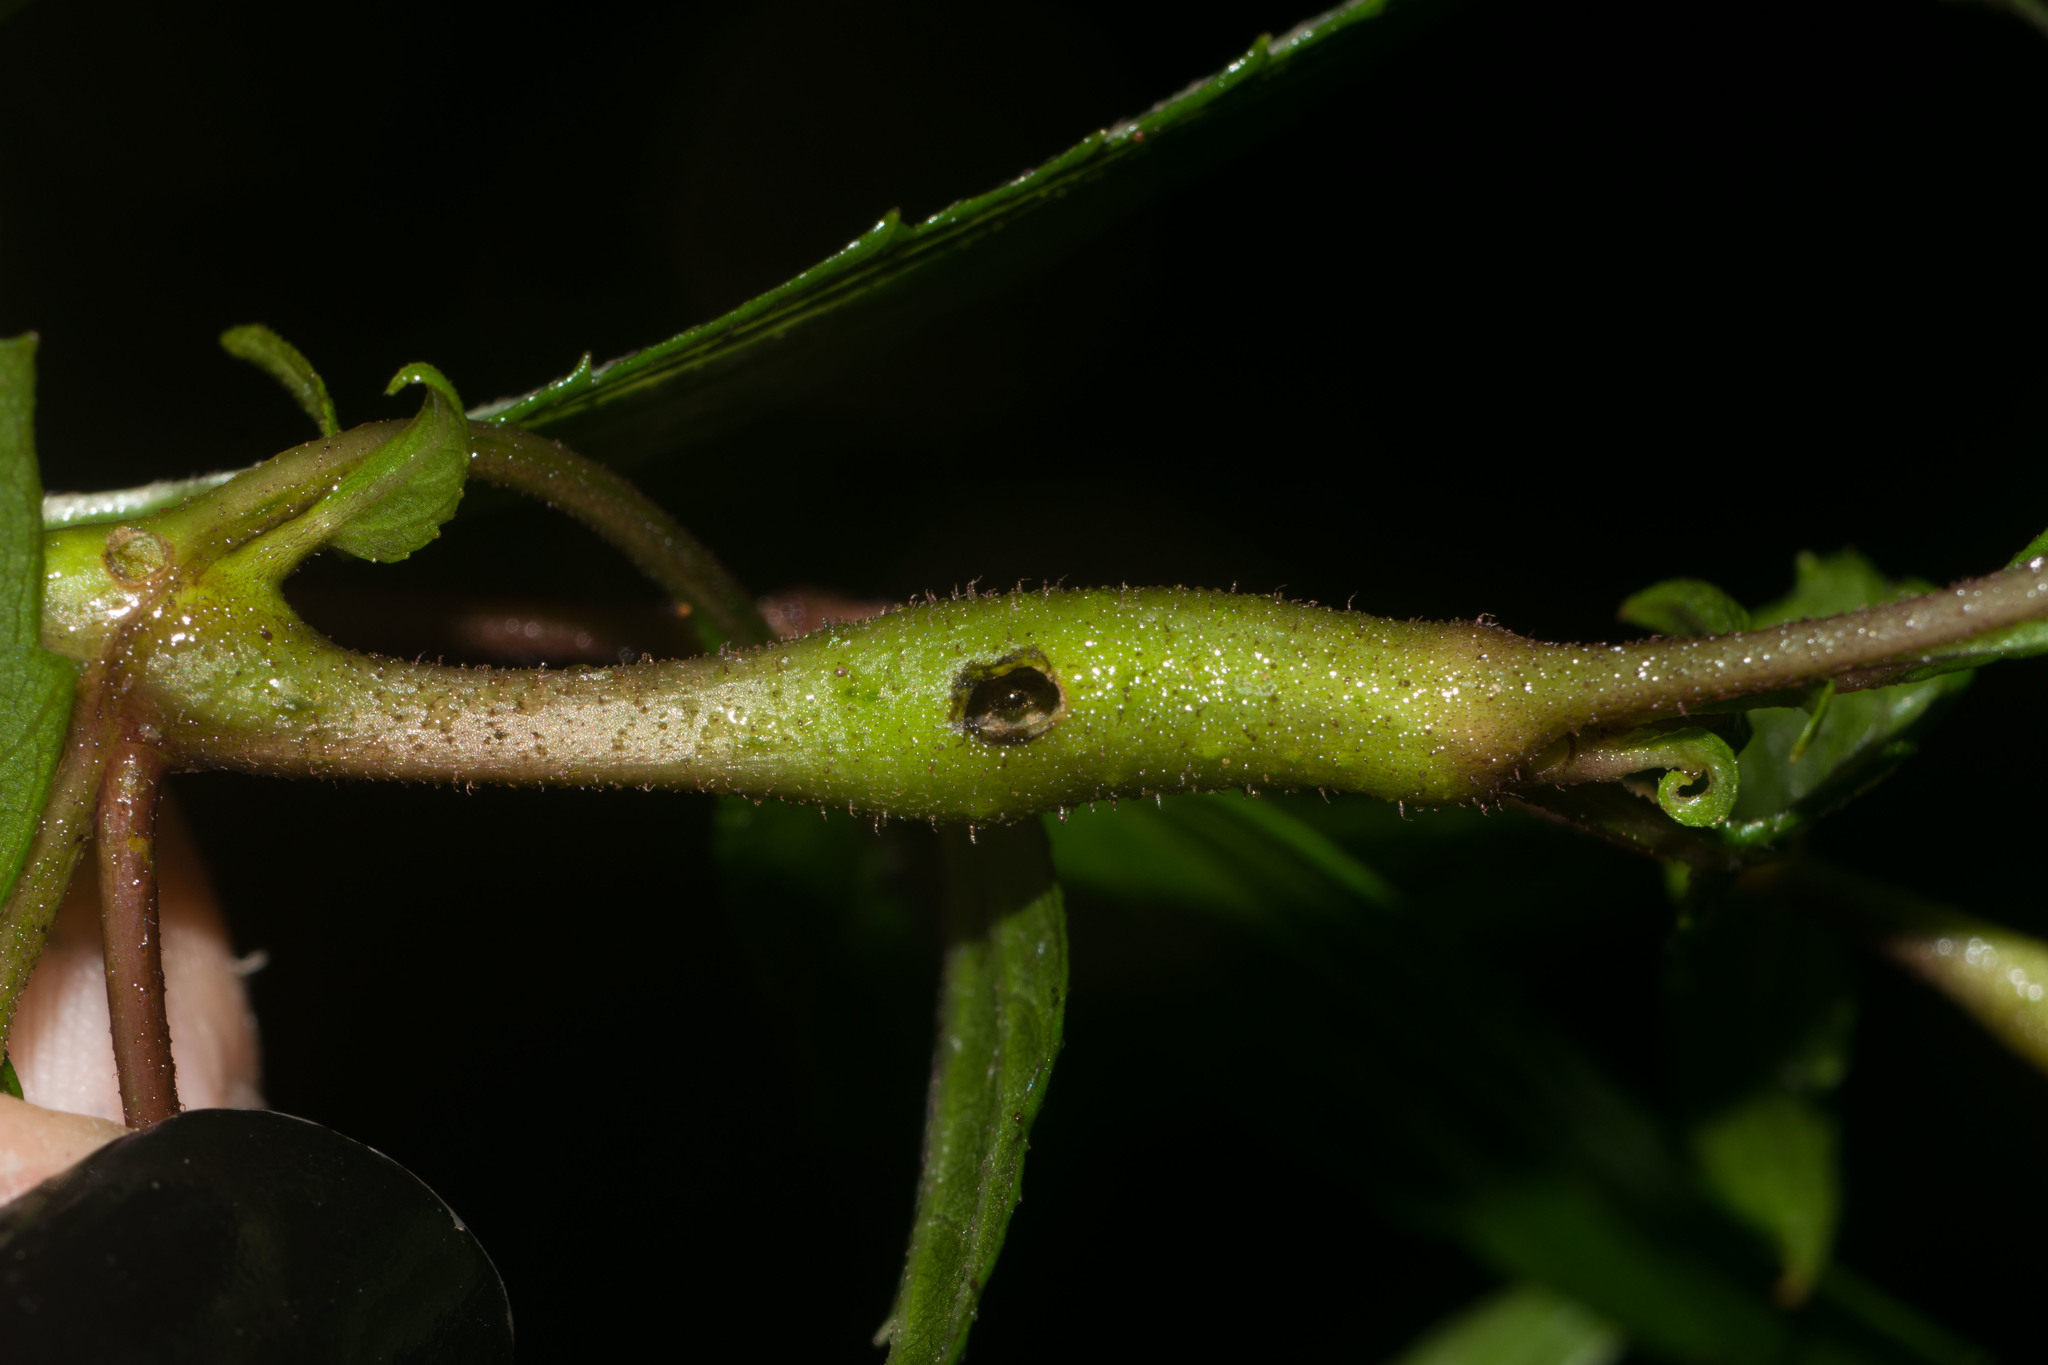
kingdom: Animalia
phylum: Arthropoda
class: Insecta
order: Diptera
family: Tephritidae
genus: Procecidochares
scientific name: Procecidochares alani
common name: Fruit fly
